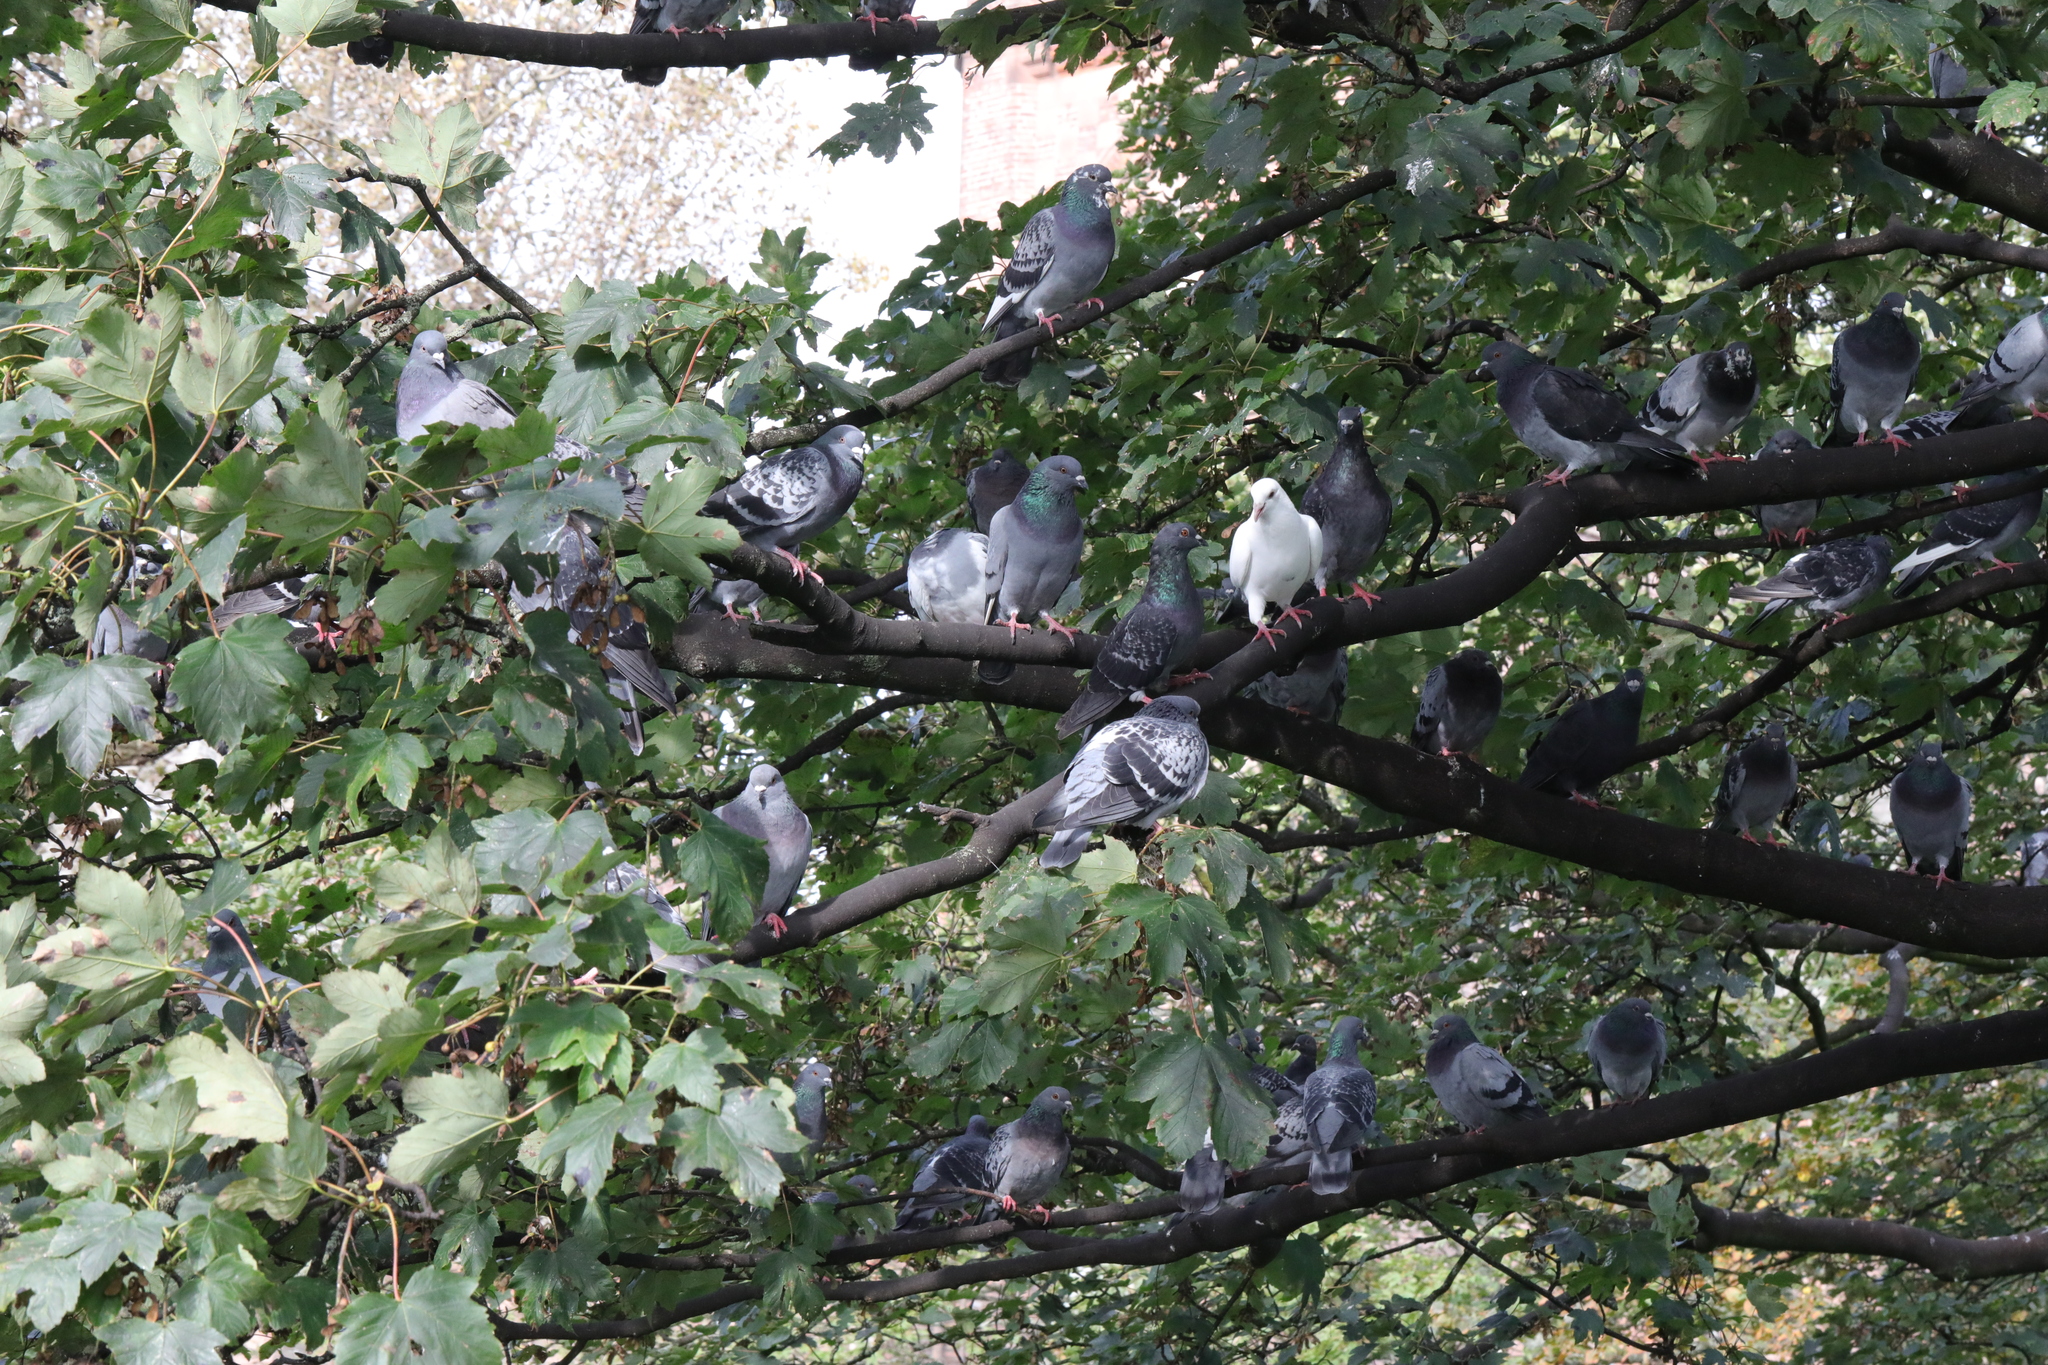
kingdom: Animalia
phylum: Chordata
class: Aves
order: Columbiformes
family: Columbidae
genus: Columba
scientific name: Columba livia
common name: Rock pigeon
